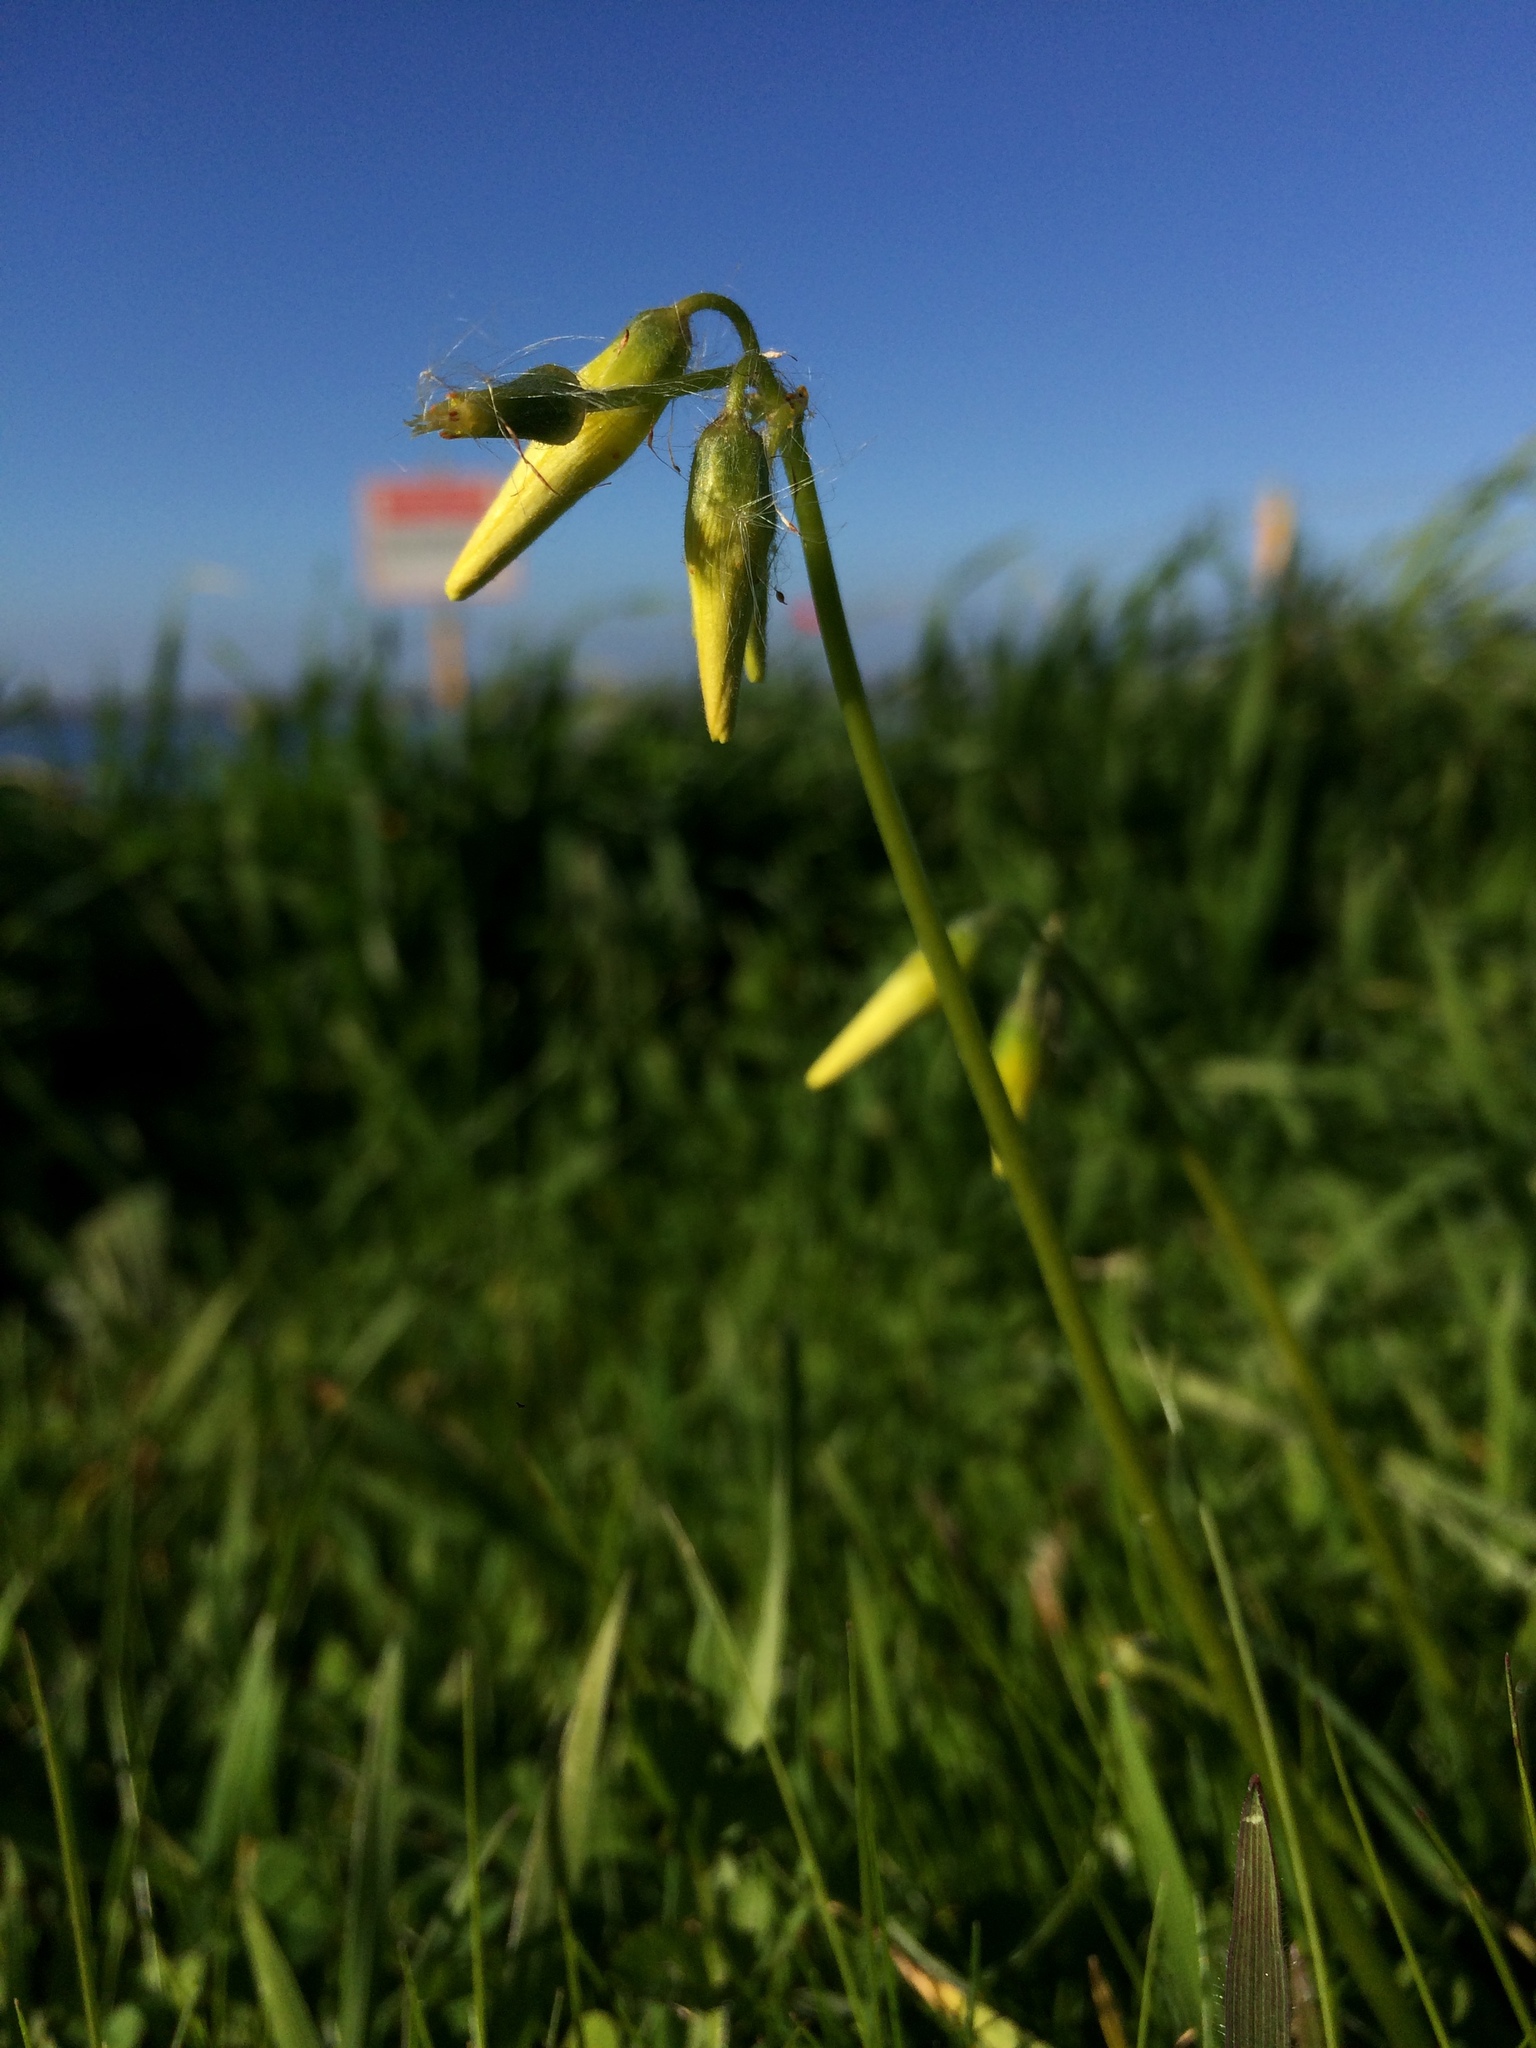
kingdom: Plantae
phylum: Tracheophyta
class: Magnoliopsida
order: Oxalidales
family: Oxalidaceae
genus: Oxalis
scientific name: Oxalis pes-caprae
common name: Bermuda-buttercup
